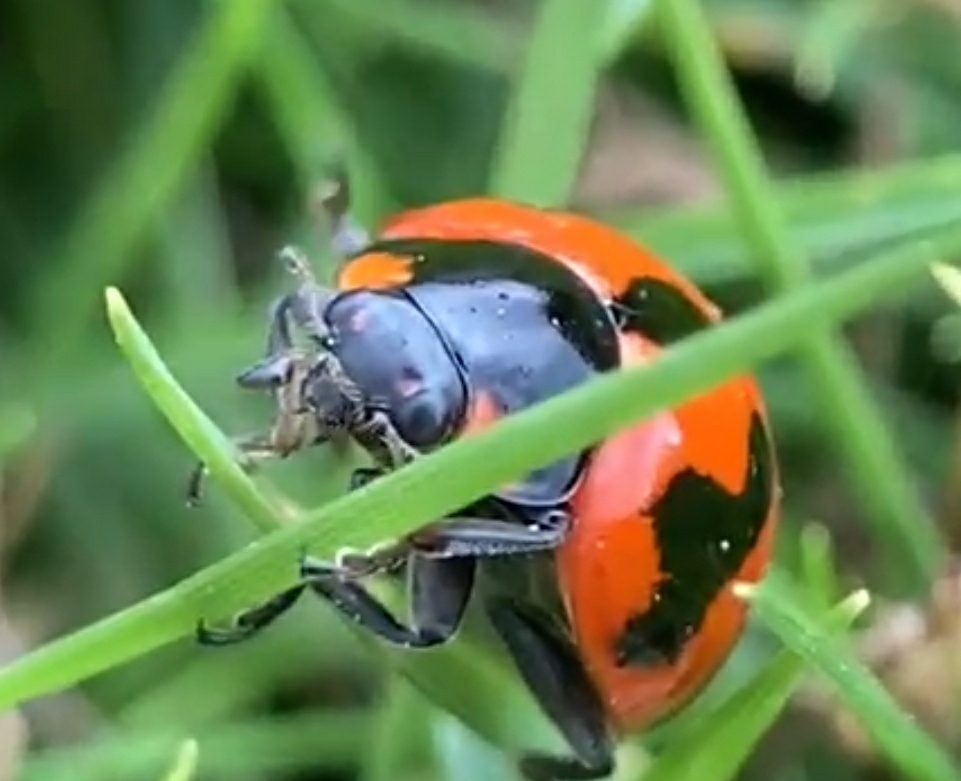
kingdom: Animalia
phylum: Arthropoda
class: Insecta
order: Coleoptera
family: Coccinellidae
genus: Coccinella
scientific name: Coccinella transversalis
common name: Transverse lady beetle
